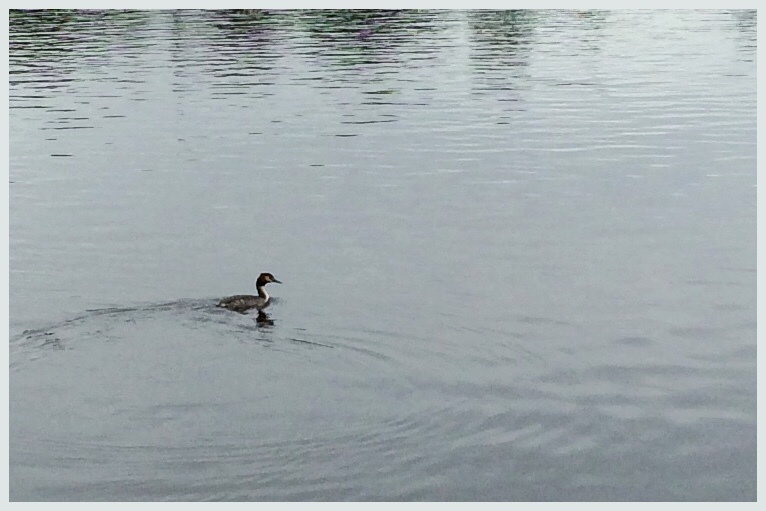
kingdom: Animalia
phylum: Chordata
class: Aves
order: Podicipediformes
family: Podicipedidae
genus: Podiceps
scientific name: Podiceps cristatus
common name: Great crested grebe
